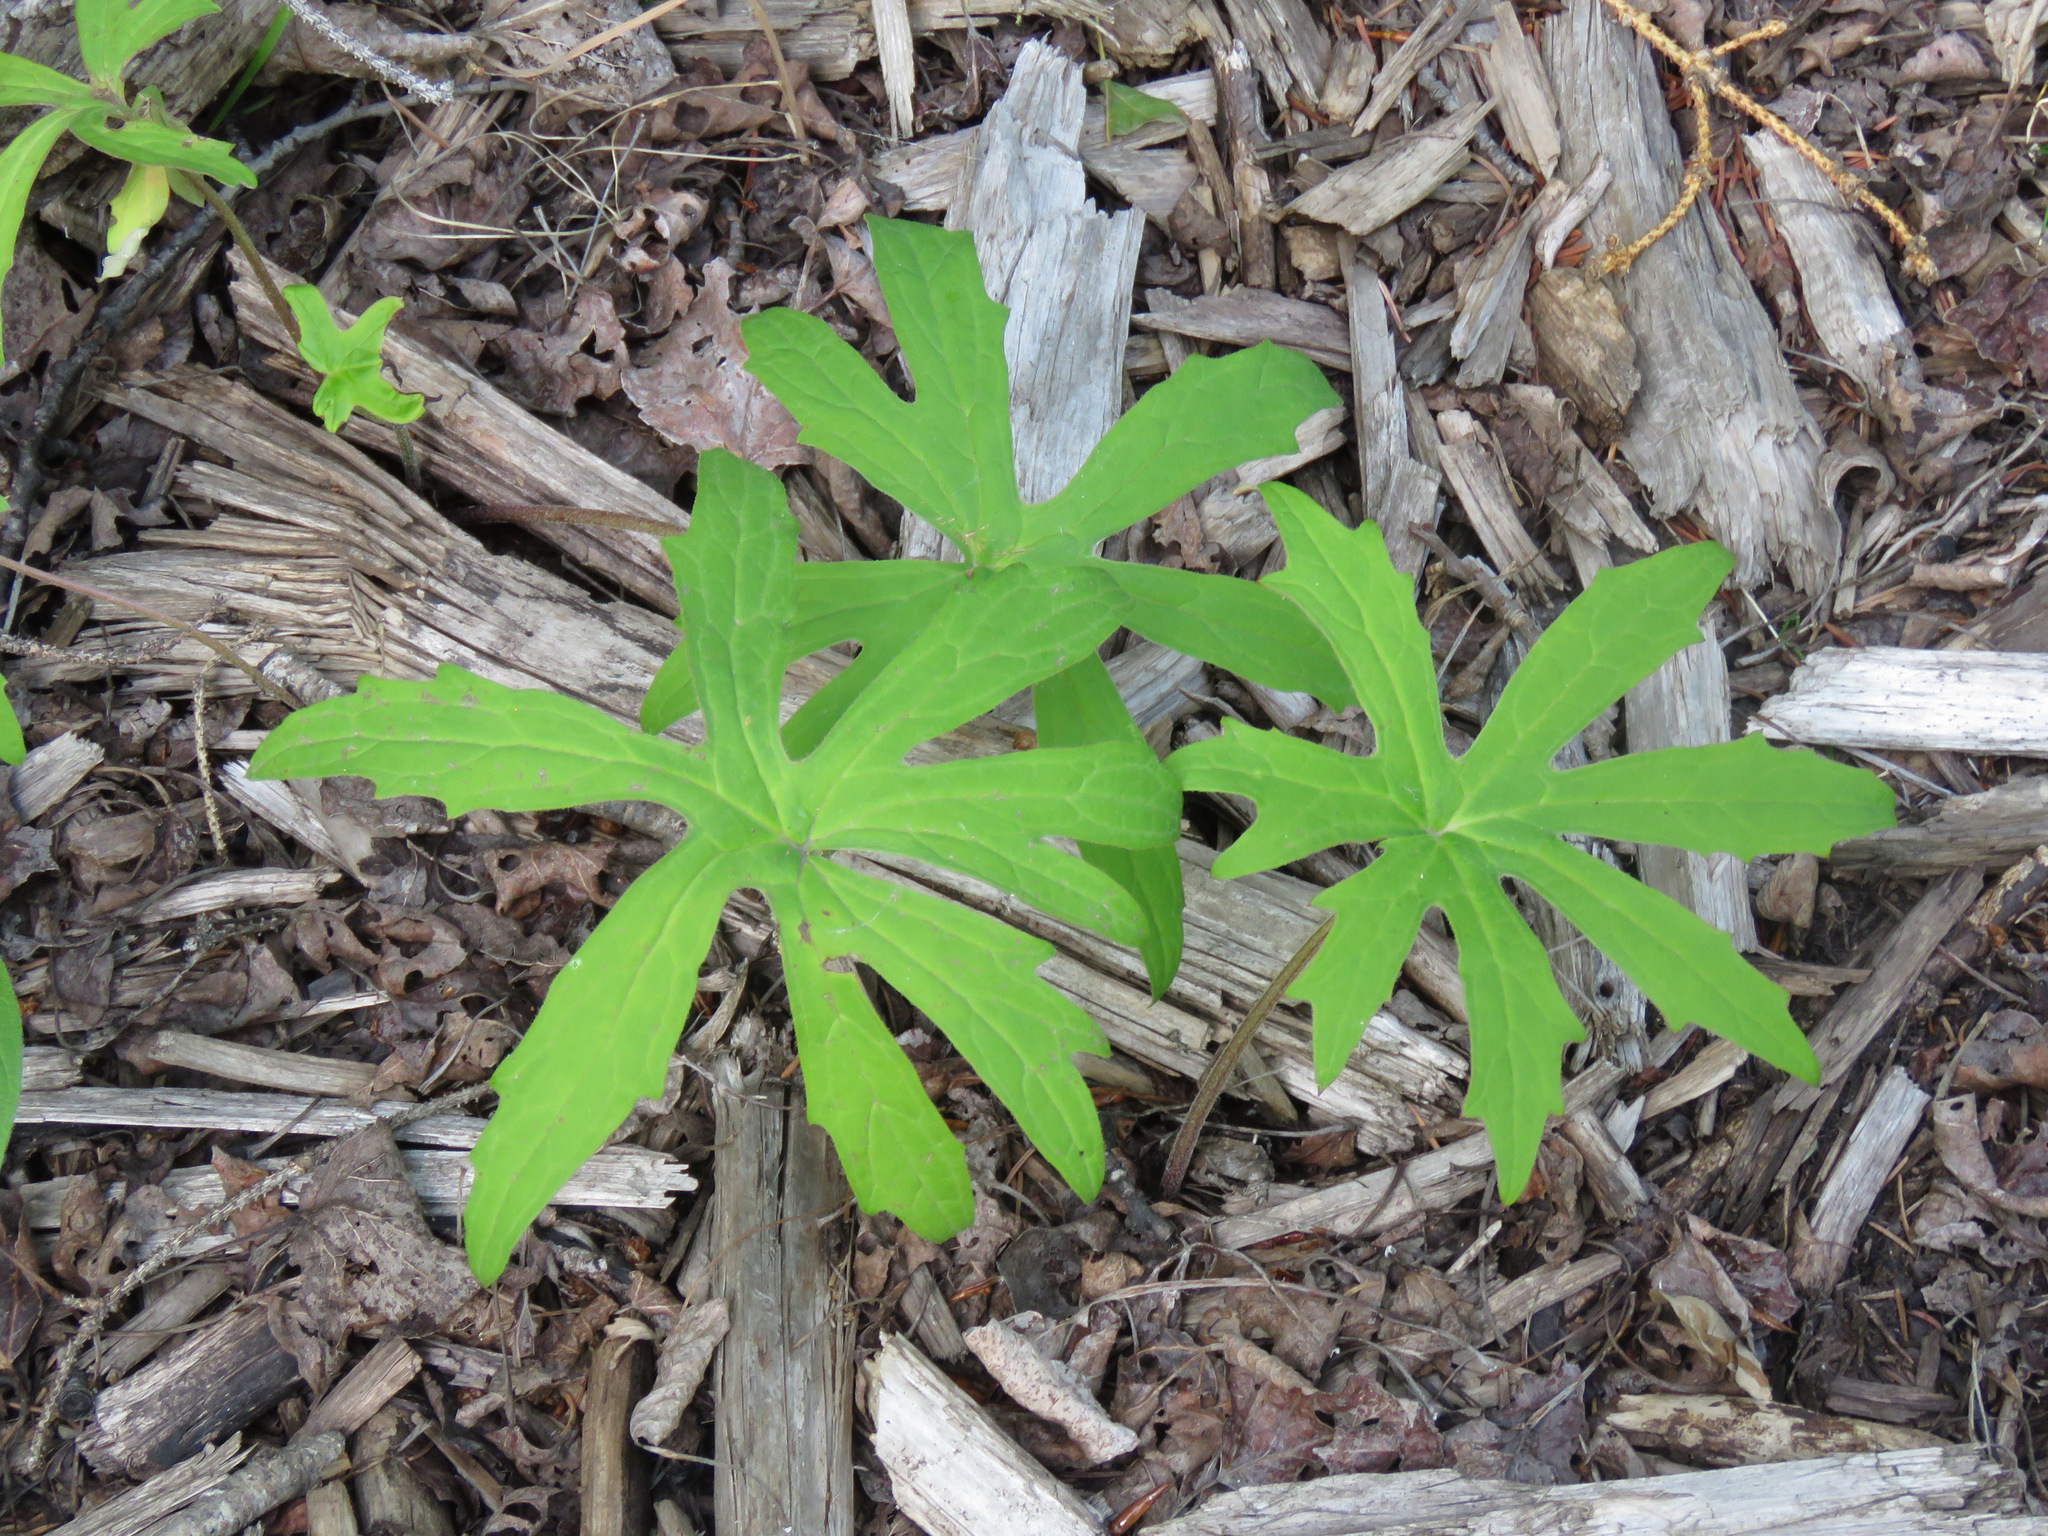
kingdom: Plantae
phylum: Tracheophyta
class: Magnoliopsida
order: Asterales
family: Asteraceae
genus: Petasites
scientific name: Petasites frigidus
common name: Arctic butterbur
